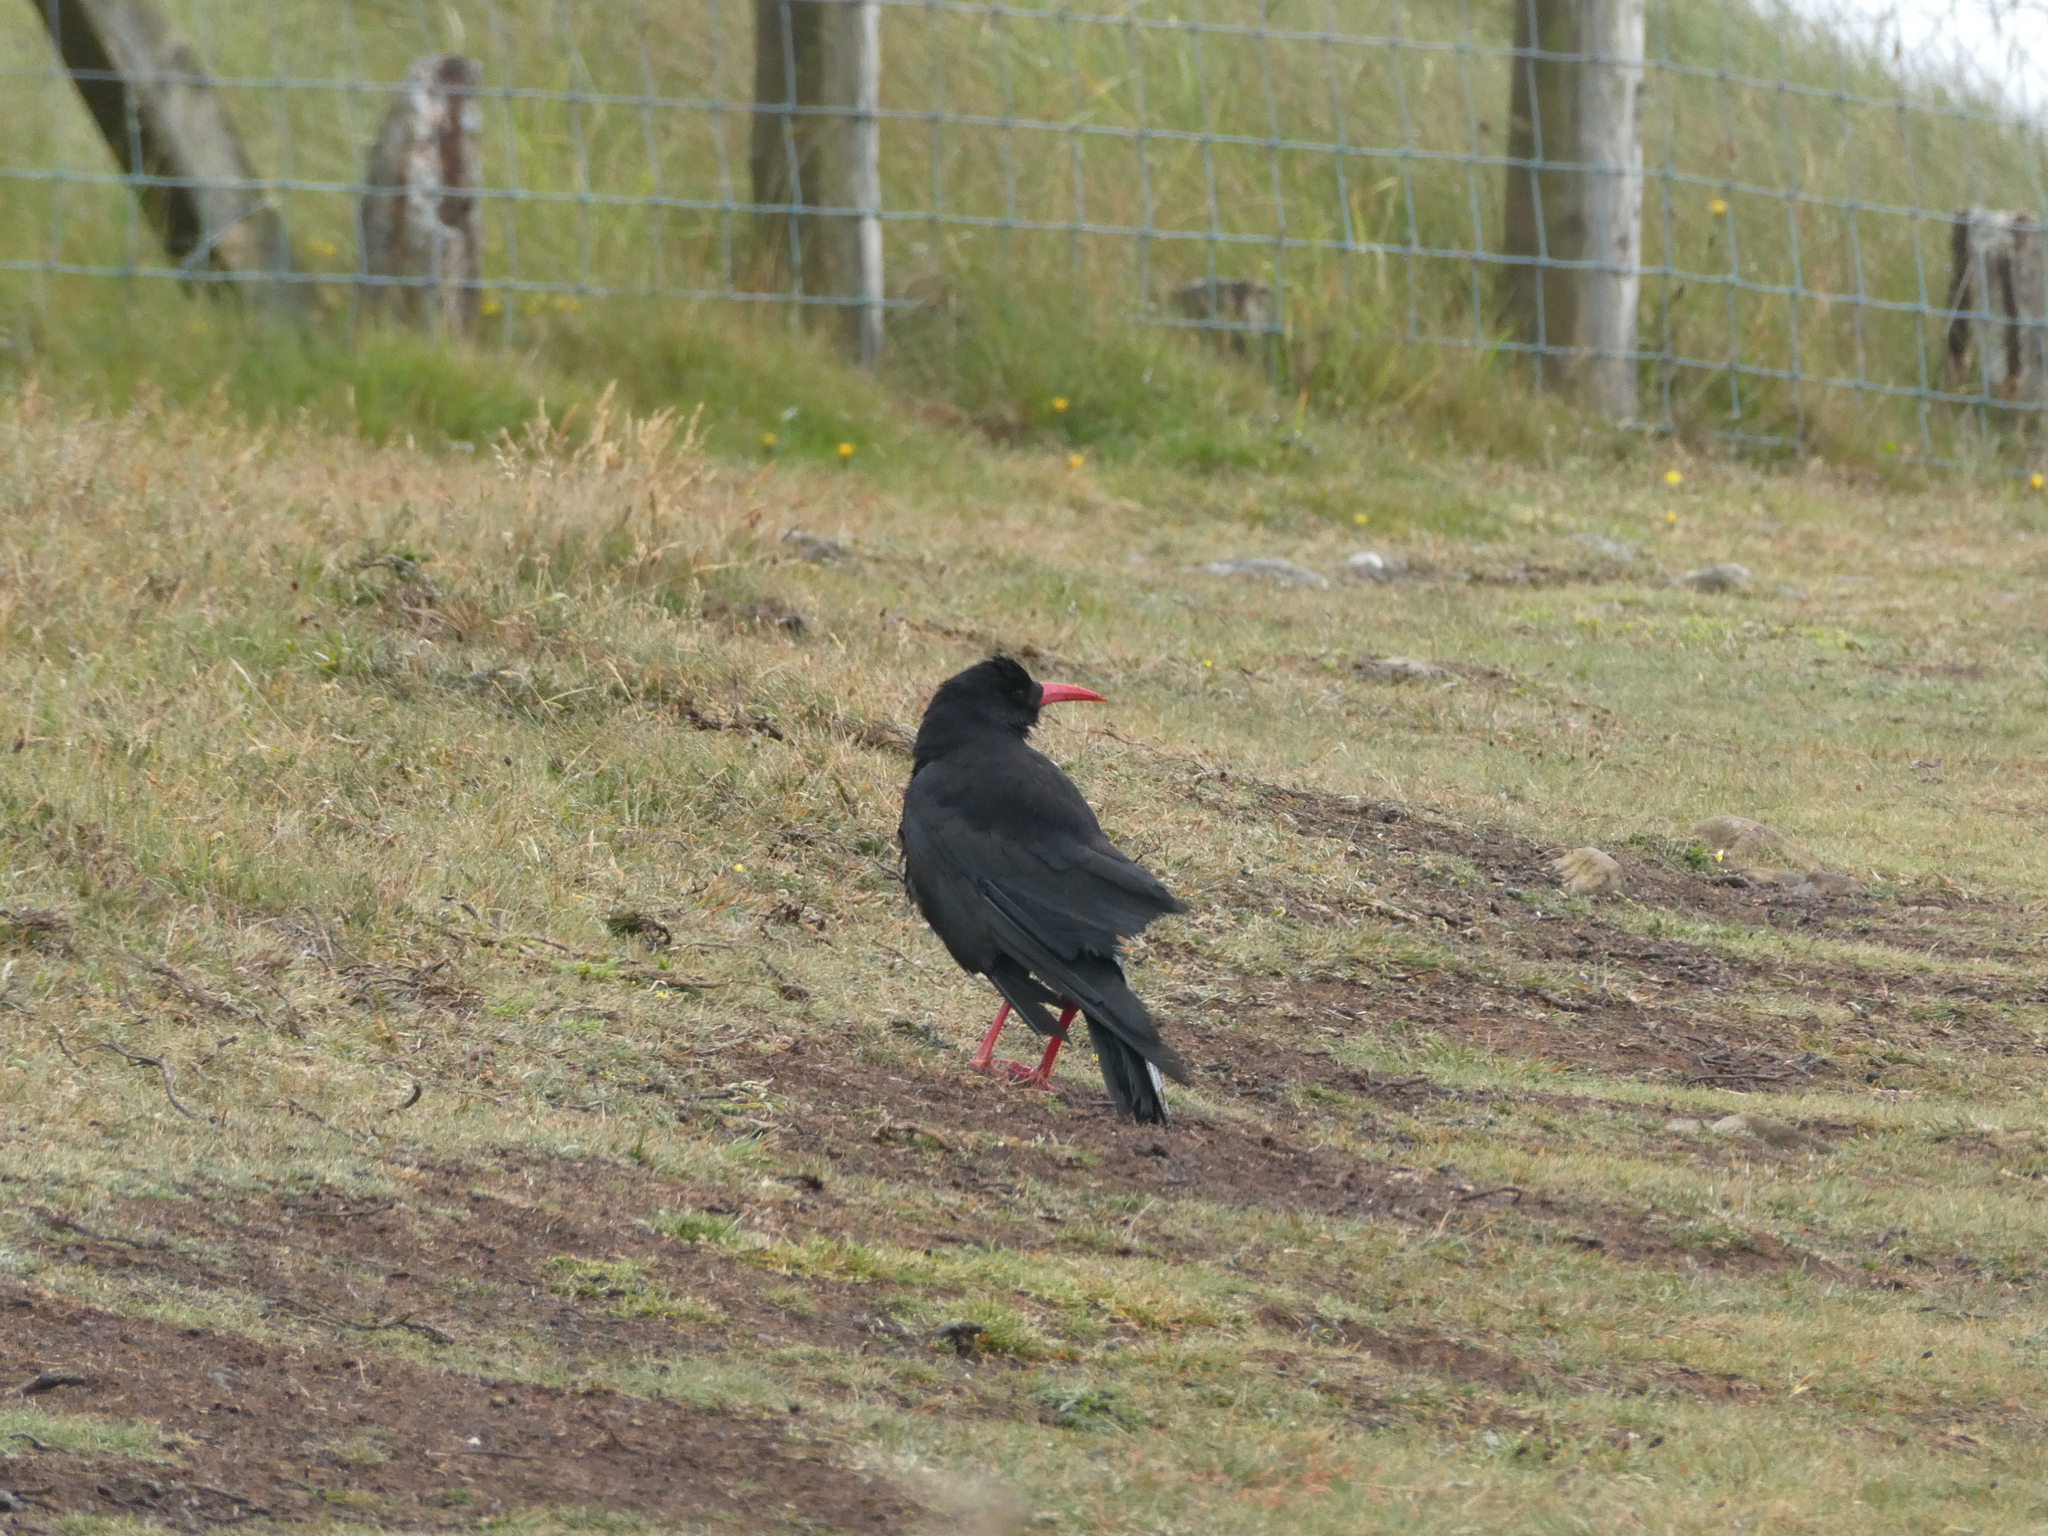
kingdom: Animalia
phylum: Chordata
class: Aves
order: Passeriformes
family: Corvidae
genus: Pyrrhocorax
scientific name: Pyrrhocorax pyrrhocorax
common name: Red-billed chough
